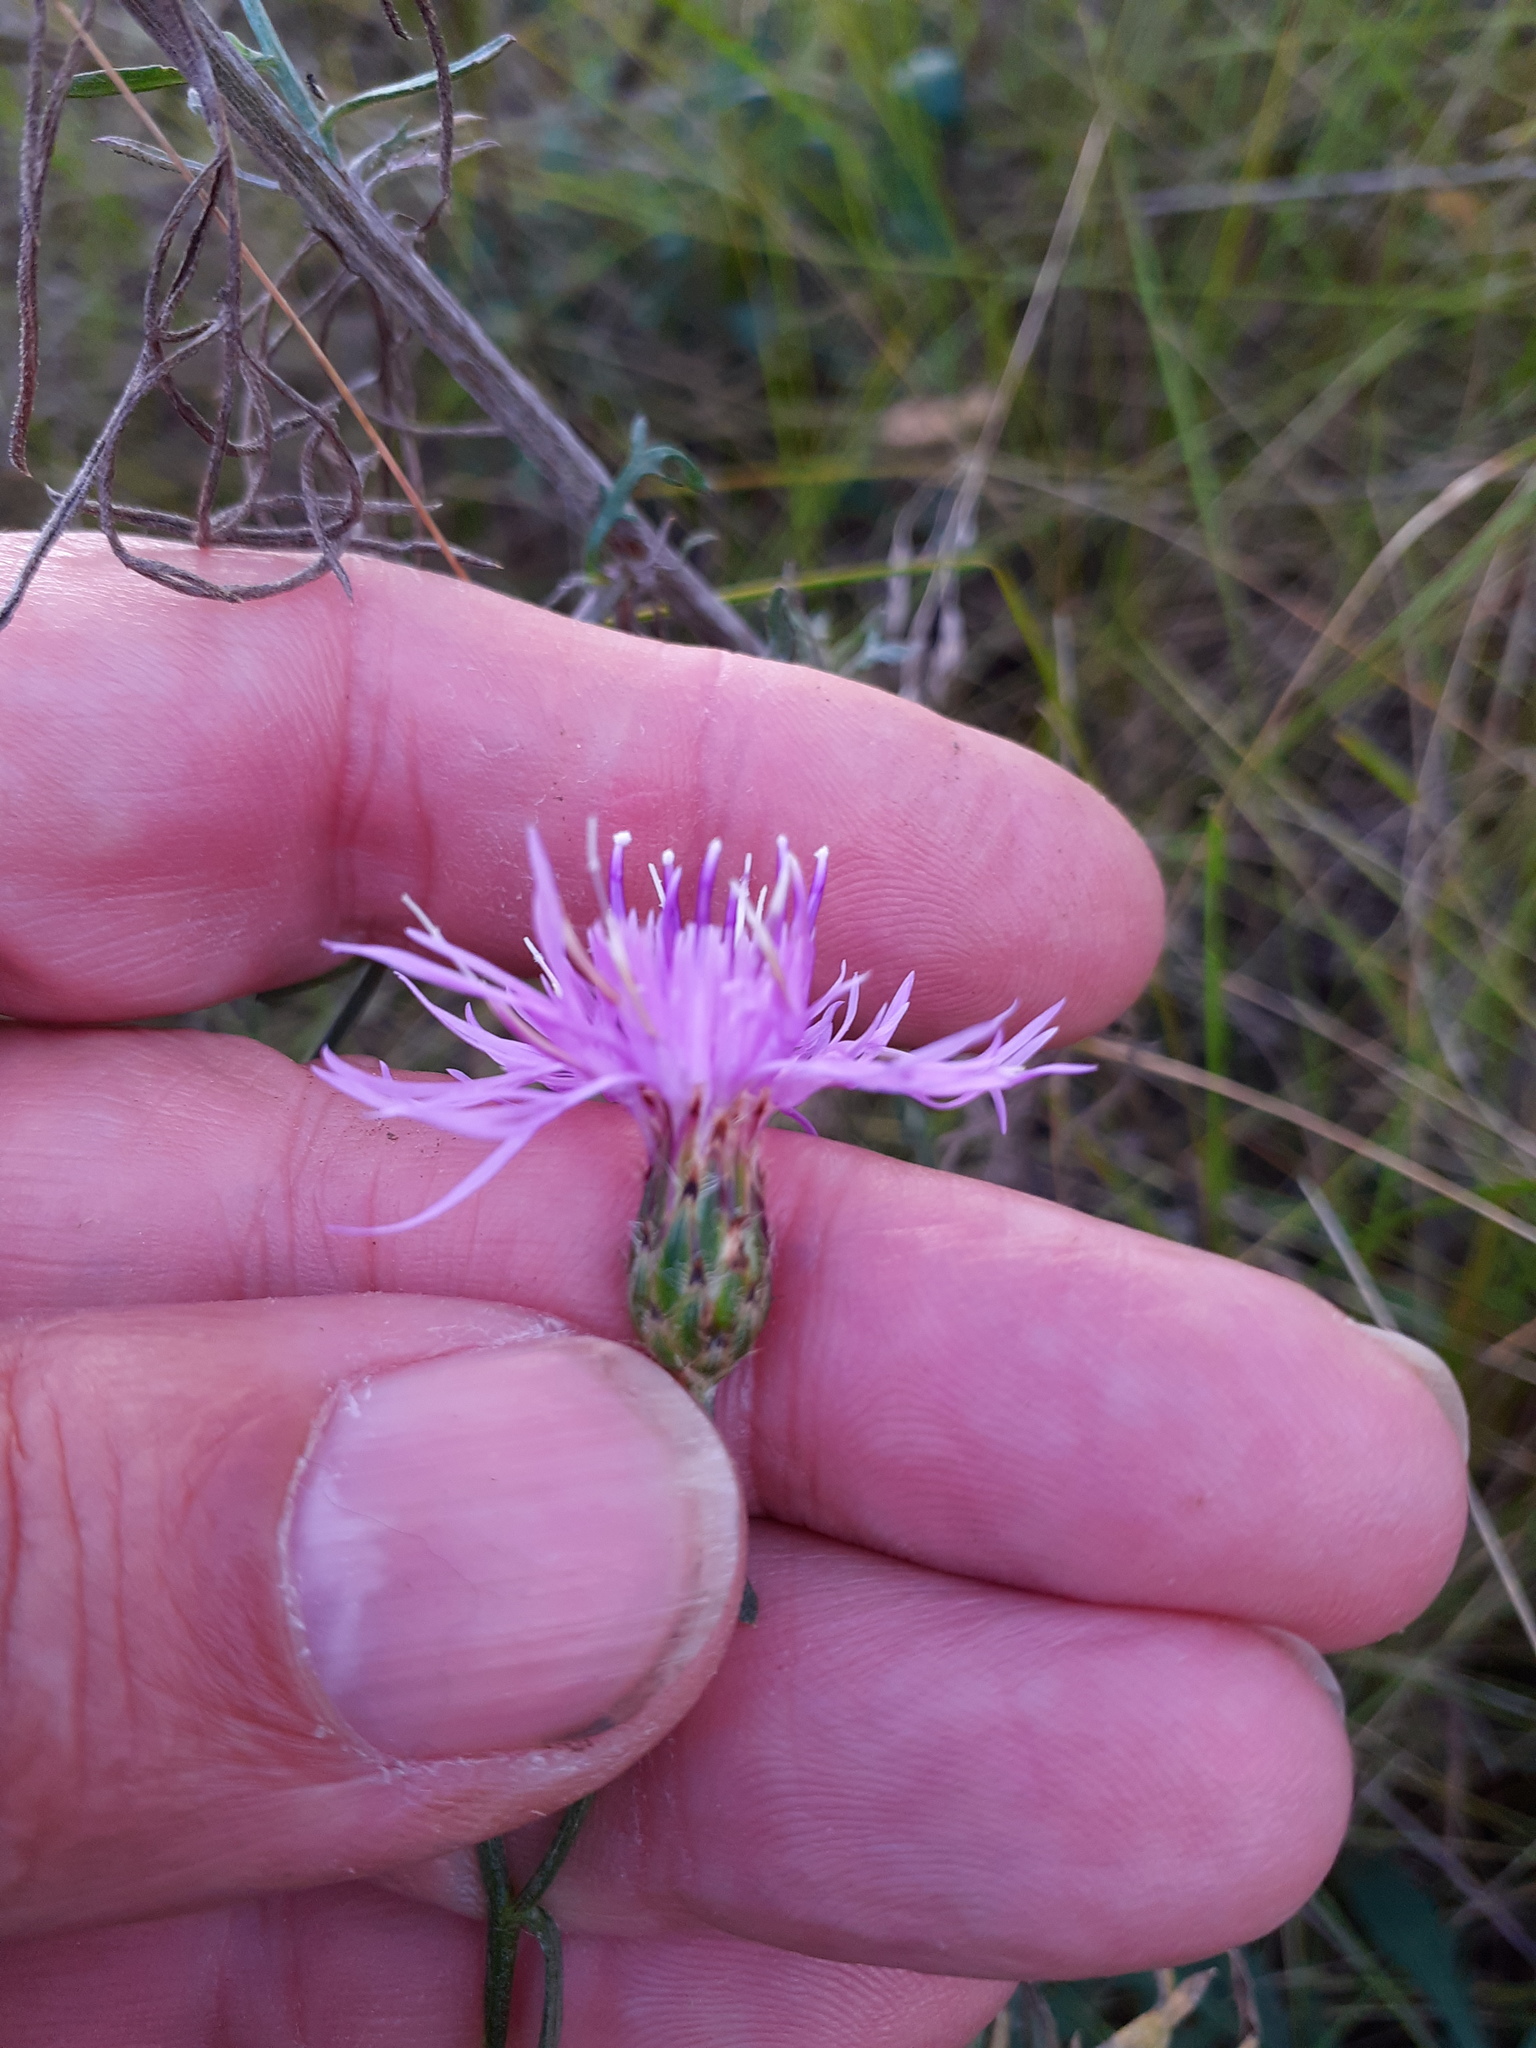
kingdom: Plantae
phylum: Tracheophyta
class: Magnoliopsida
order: Asterales
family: Asteraceae
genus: Centaurea
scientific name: Centaurea stoebe
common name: Spotted knapweed
